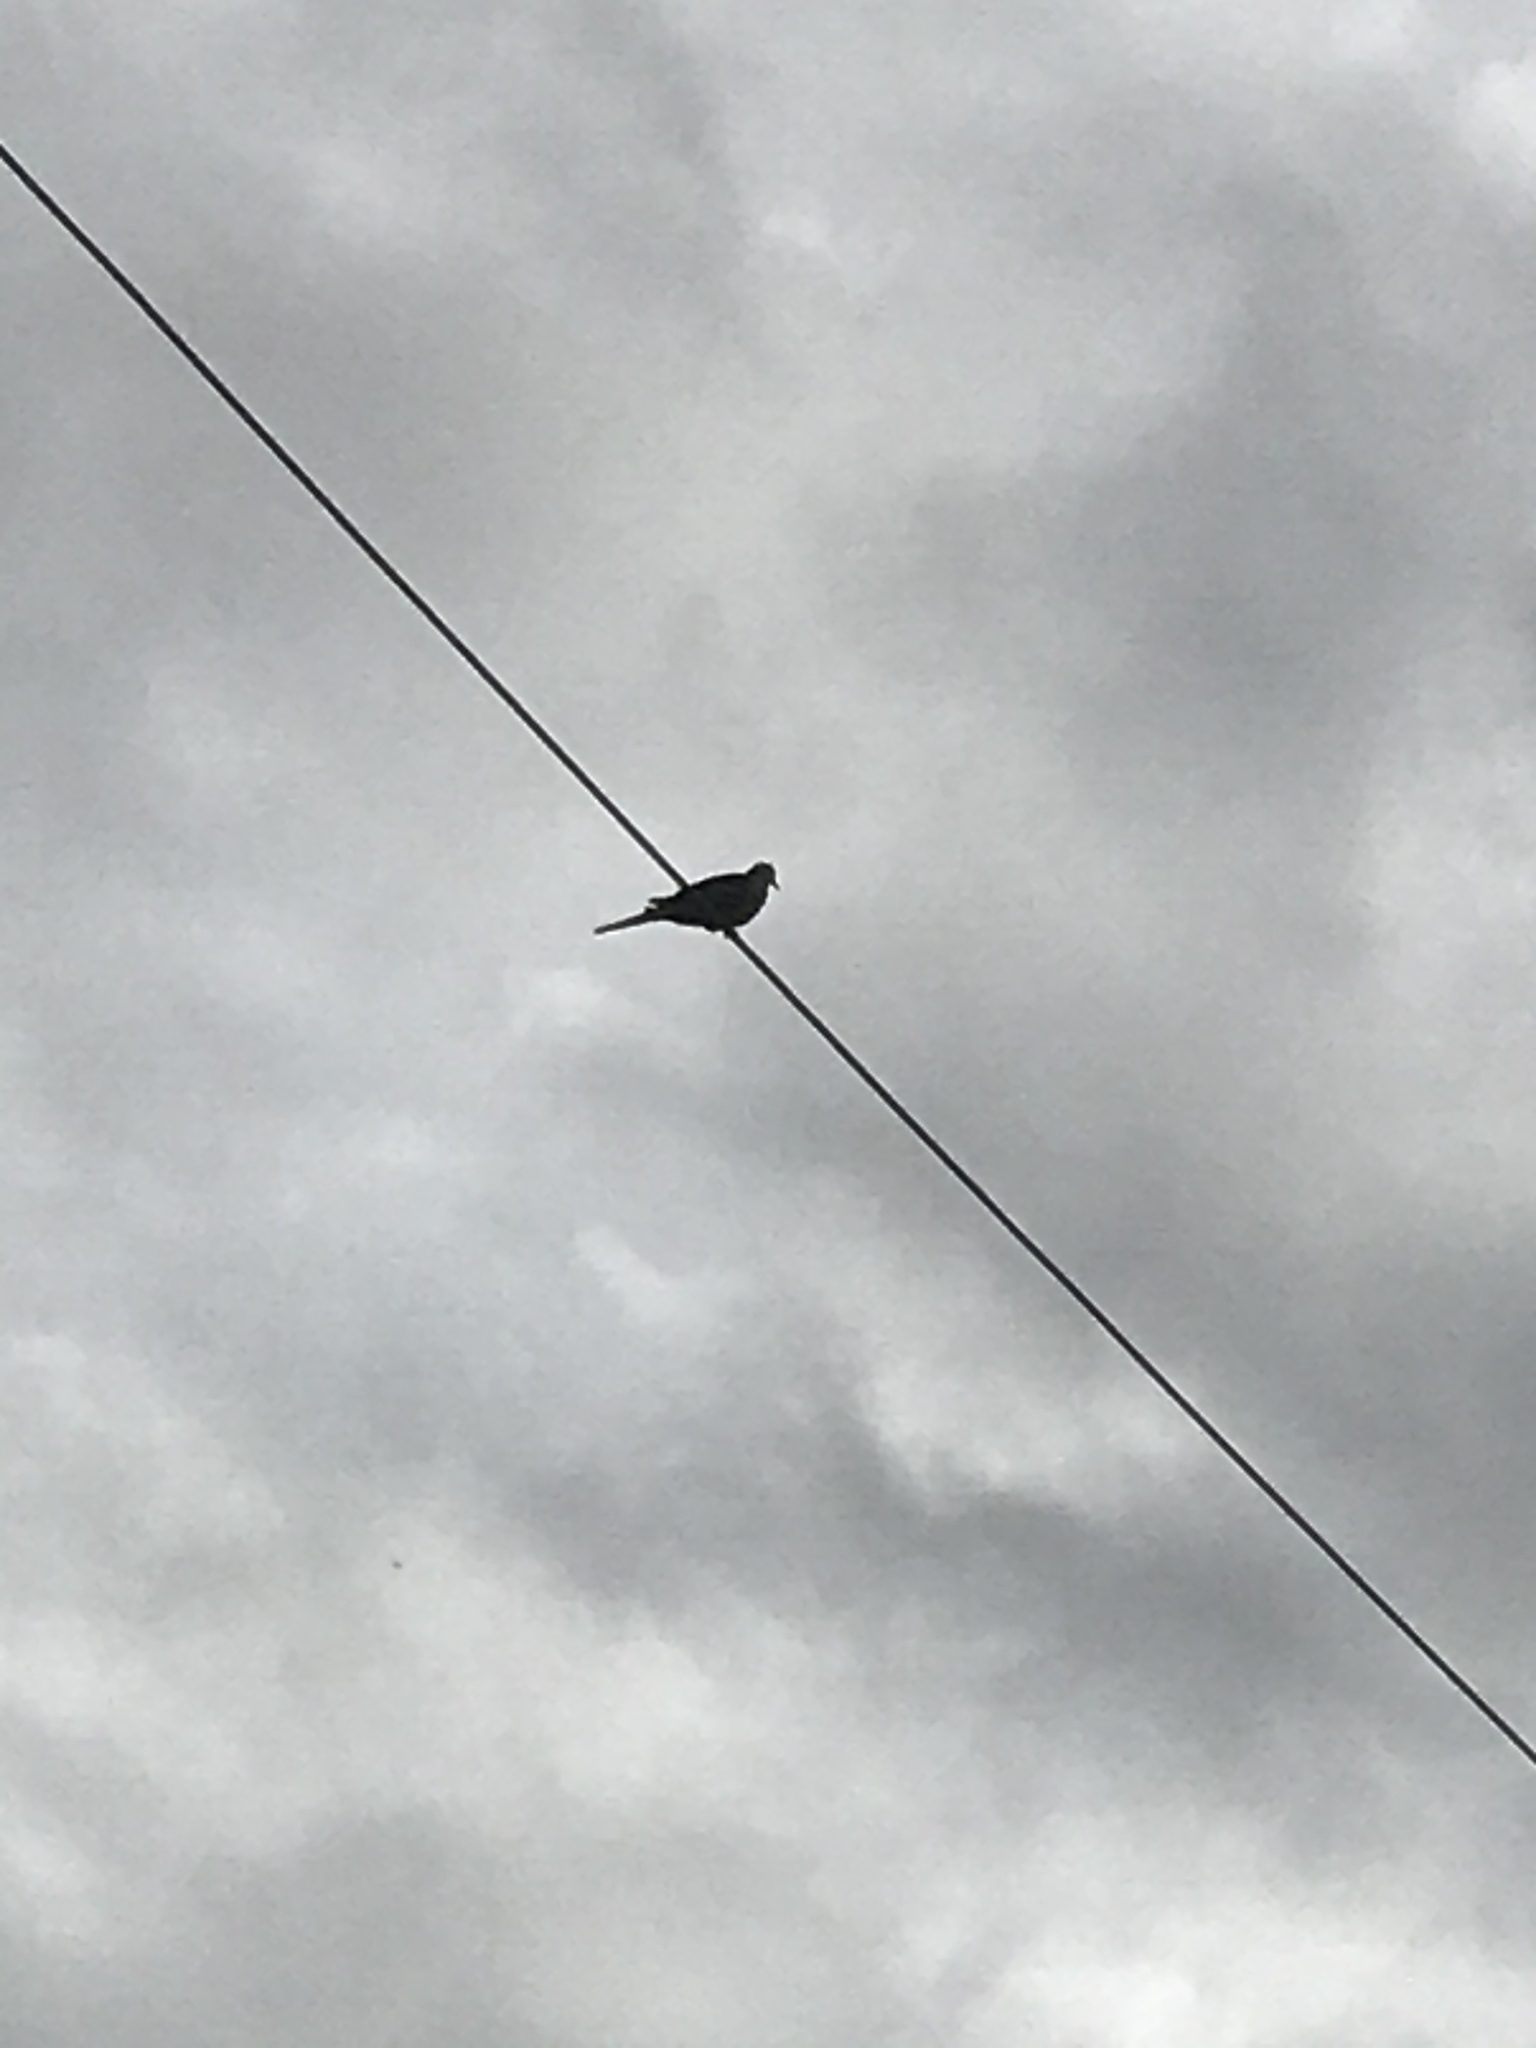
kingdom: Animalia
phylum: Chordata
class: Aves
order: Columbiformes
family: Columbidae
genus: Zenaida
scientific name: Zenaida macroura
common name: Mourning dove
